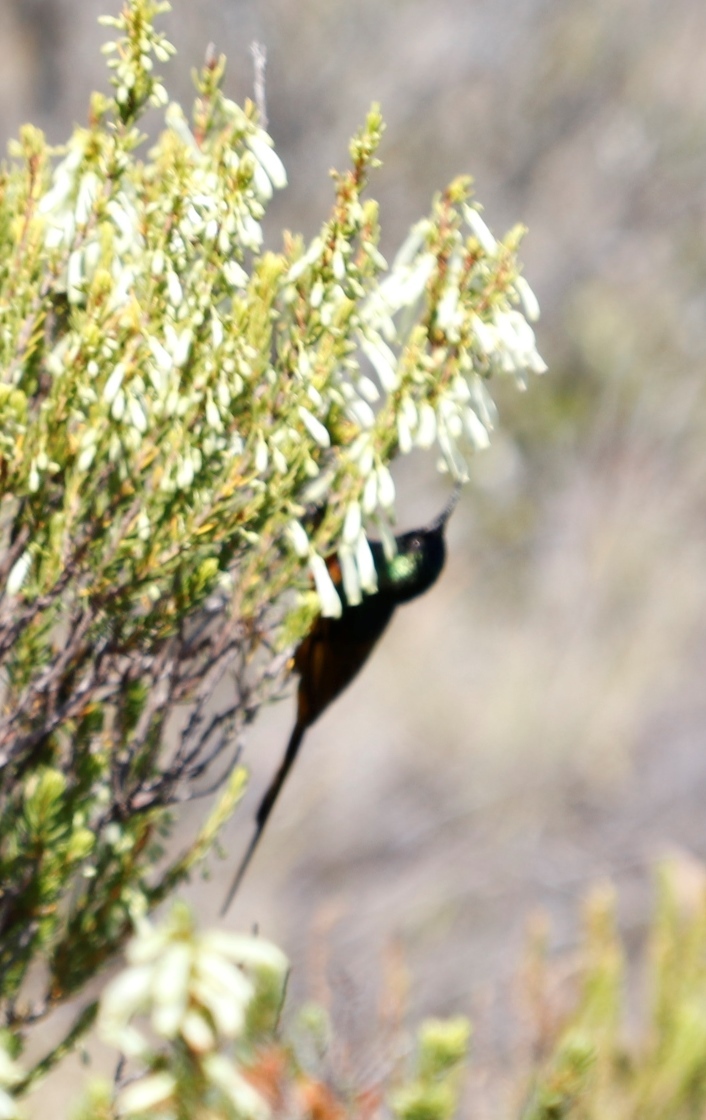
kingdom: Animalia
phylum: Chordata
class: Aves
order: Passeriformes
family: Nectariniidae
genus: Anthobaphes
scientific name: Anthobaphes violacea
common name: Orange-breasted sunbird
